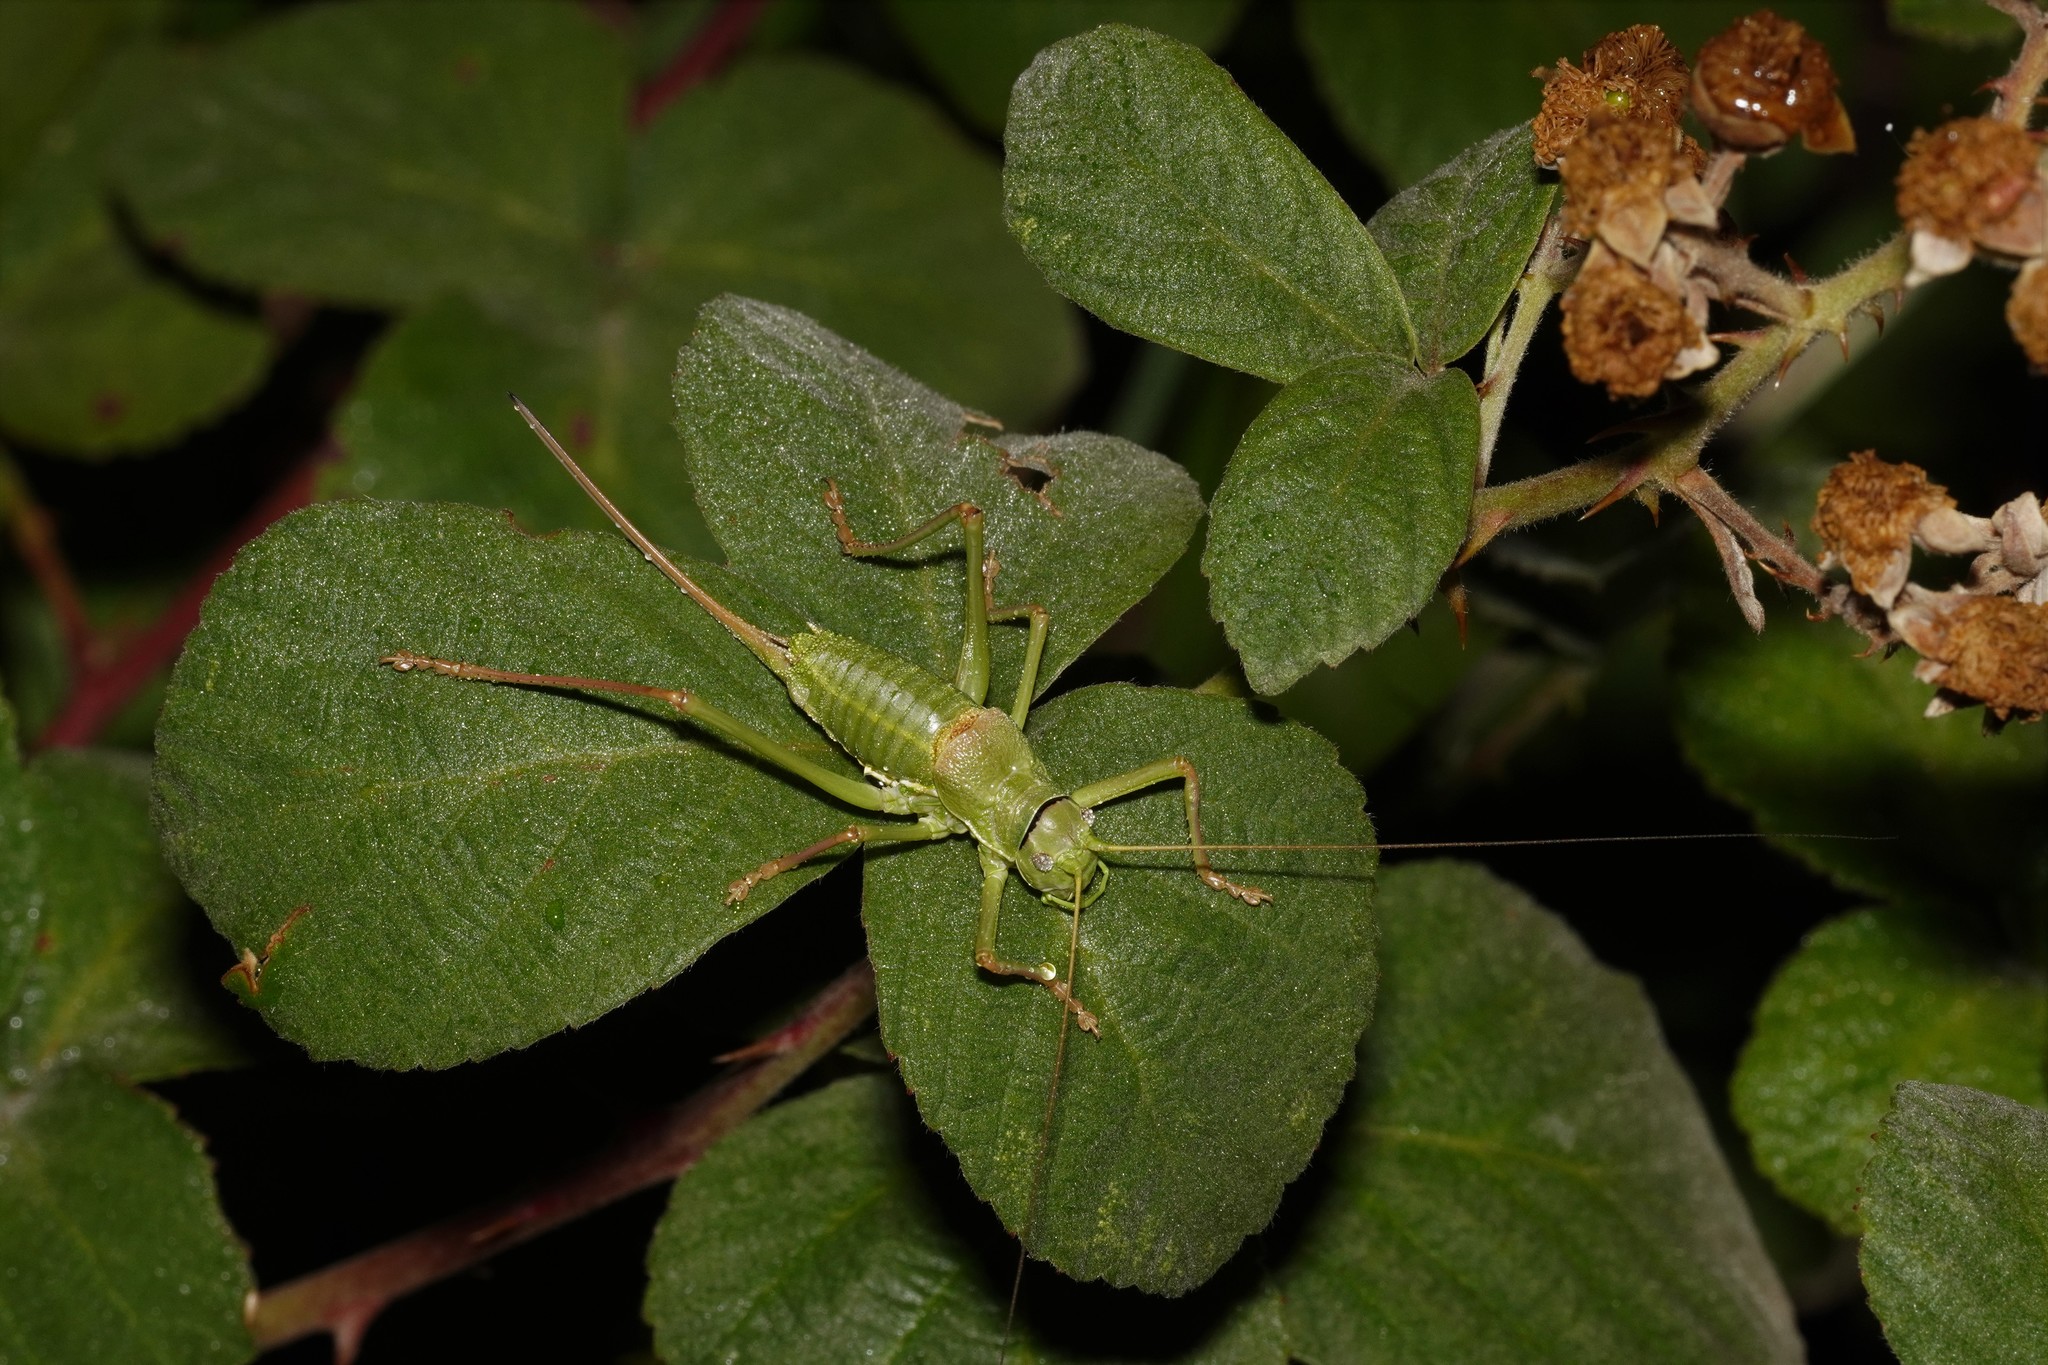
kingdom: Animalia
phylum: Arthropoda
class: Insecta
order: Orthoptera
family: Tettigoniidae
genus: Ephippiger
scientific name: Ephippiger terrestris
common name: Alpine saddle-backed bush-cricket
